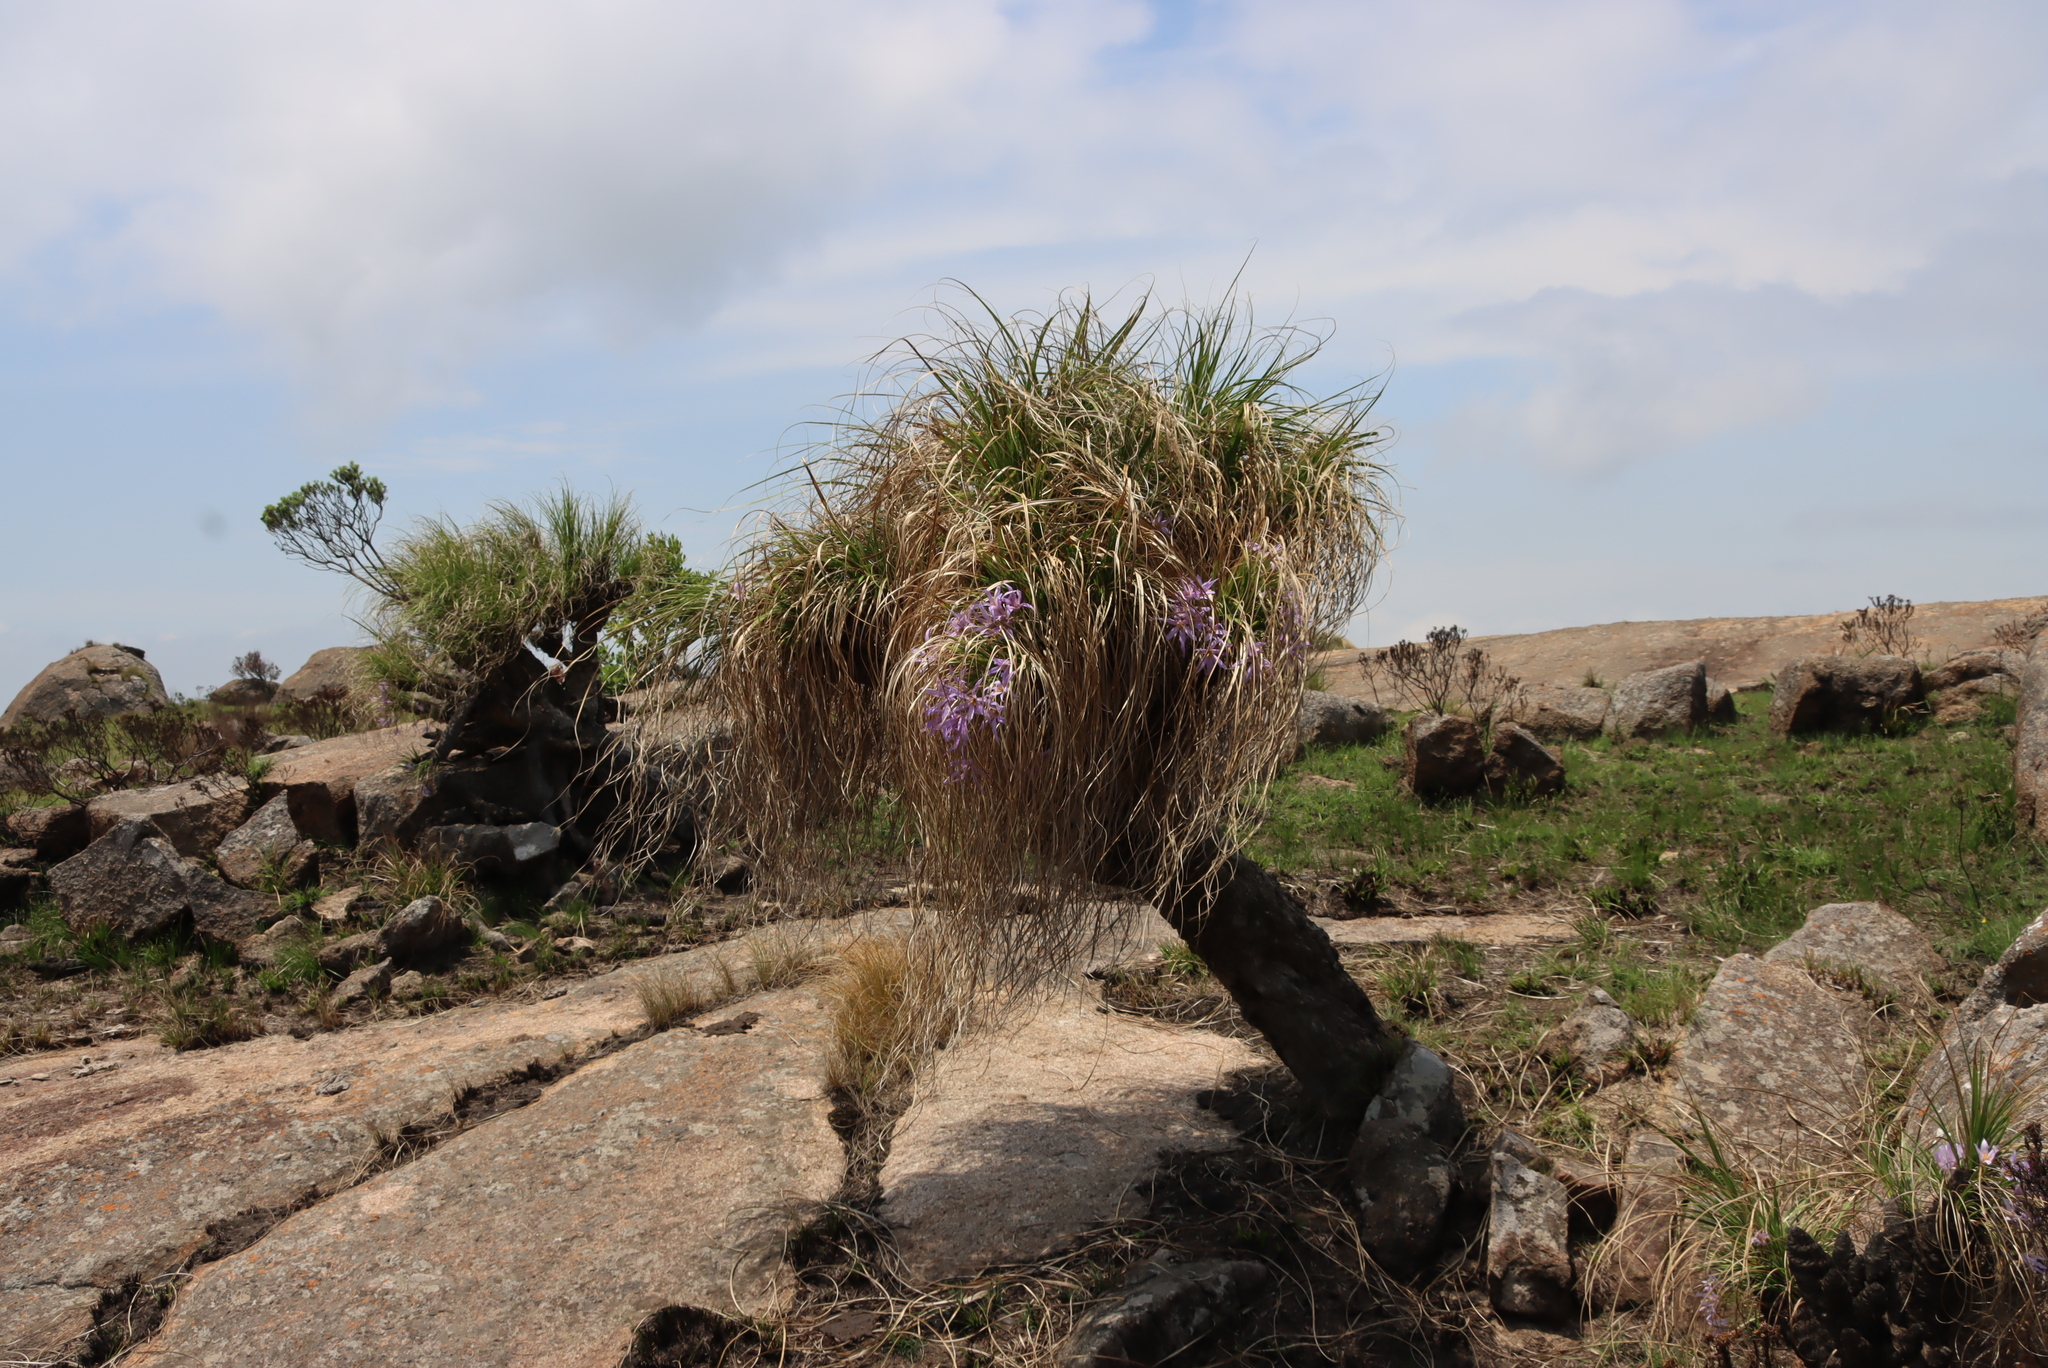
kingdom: Plantae
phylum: Tracheophyta
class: Liliopsida
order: Pandanales
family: Velloziaceae
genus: Xerophyta
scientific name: Xerophyta retinervis
